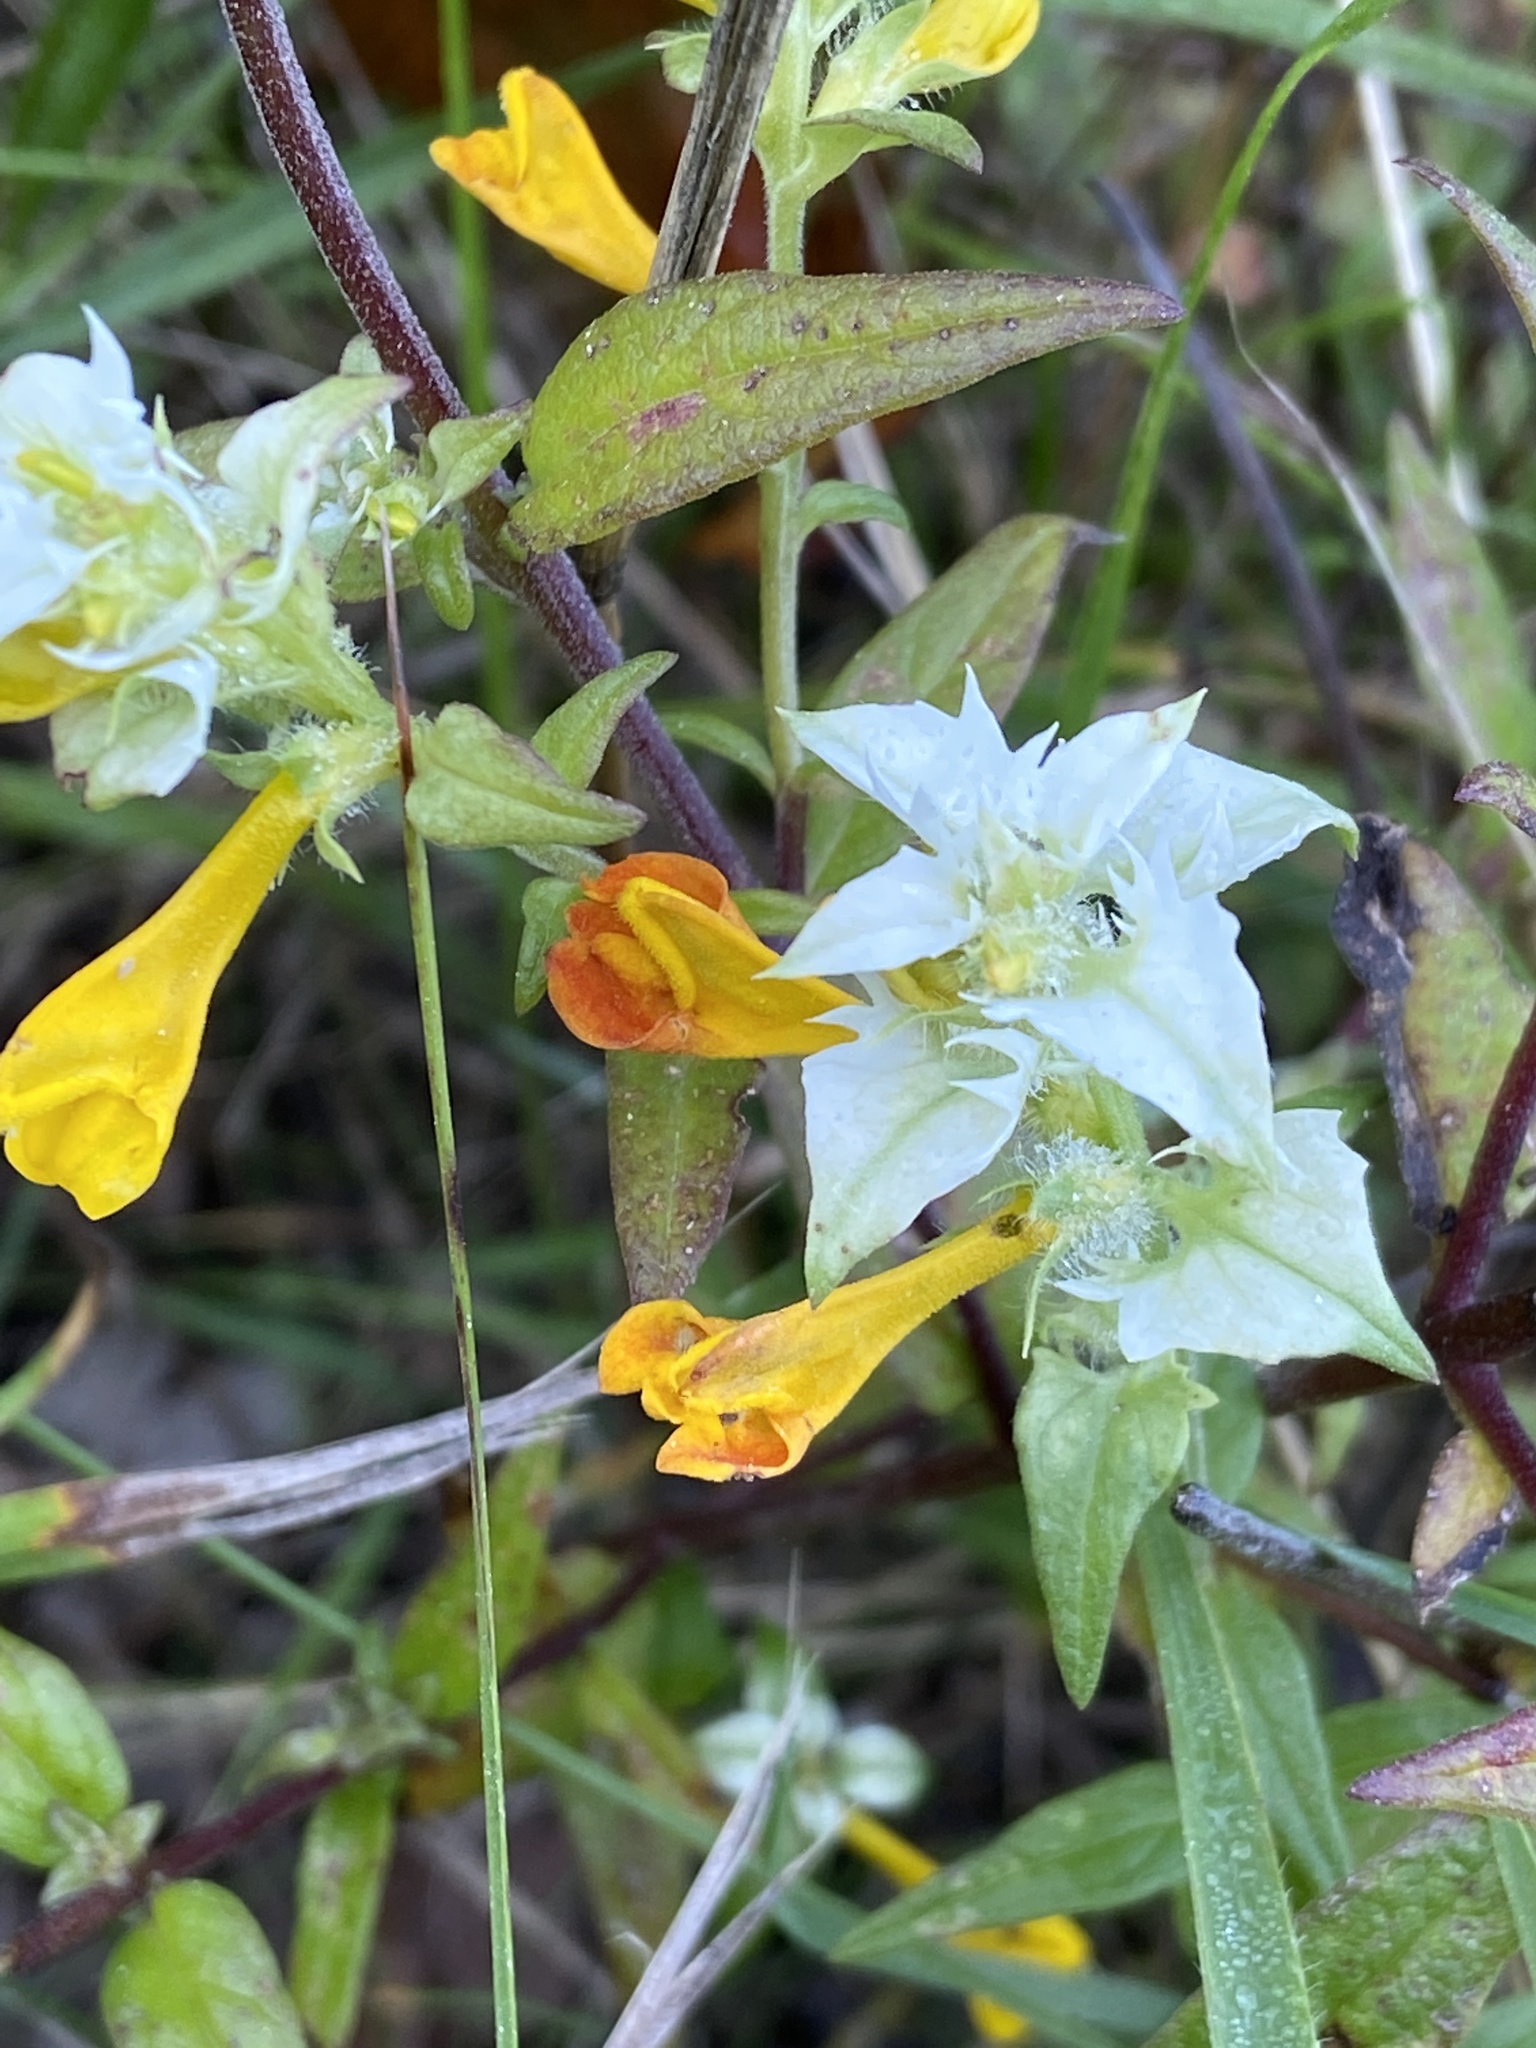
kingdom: Plantae
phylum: Tracheophyta
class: Magnoliopsida
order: Lamiales
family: Orobanchaceae
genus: Melampyrum
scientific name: Melampyrum nemorosum
